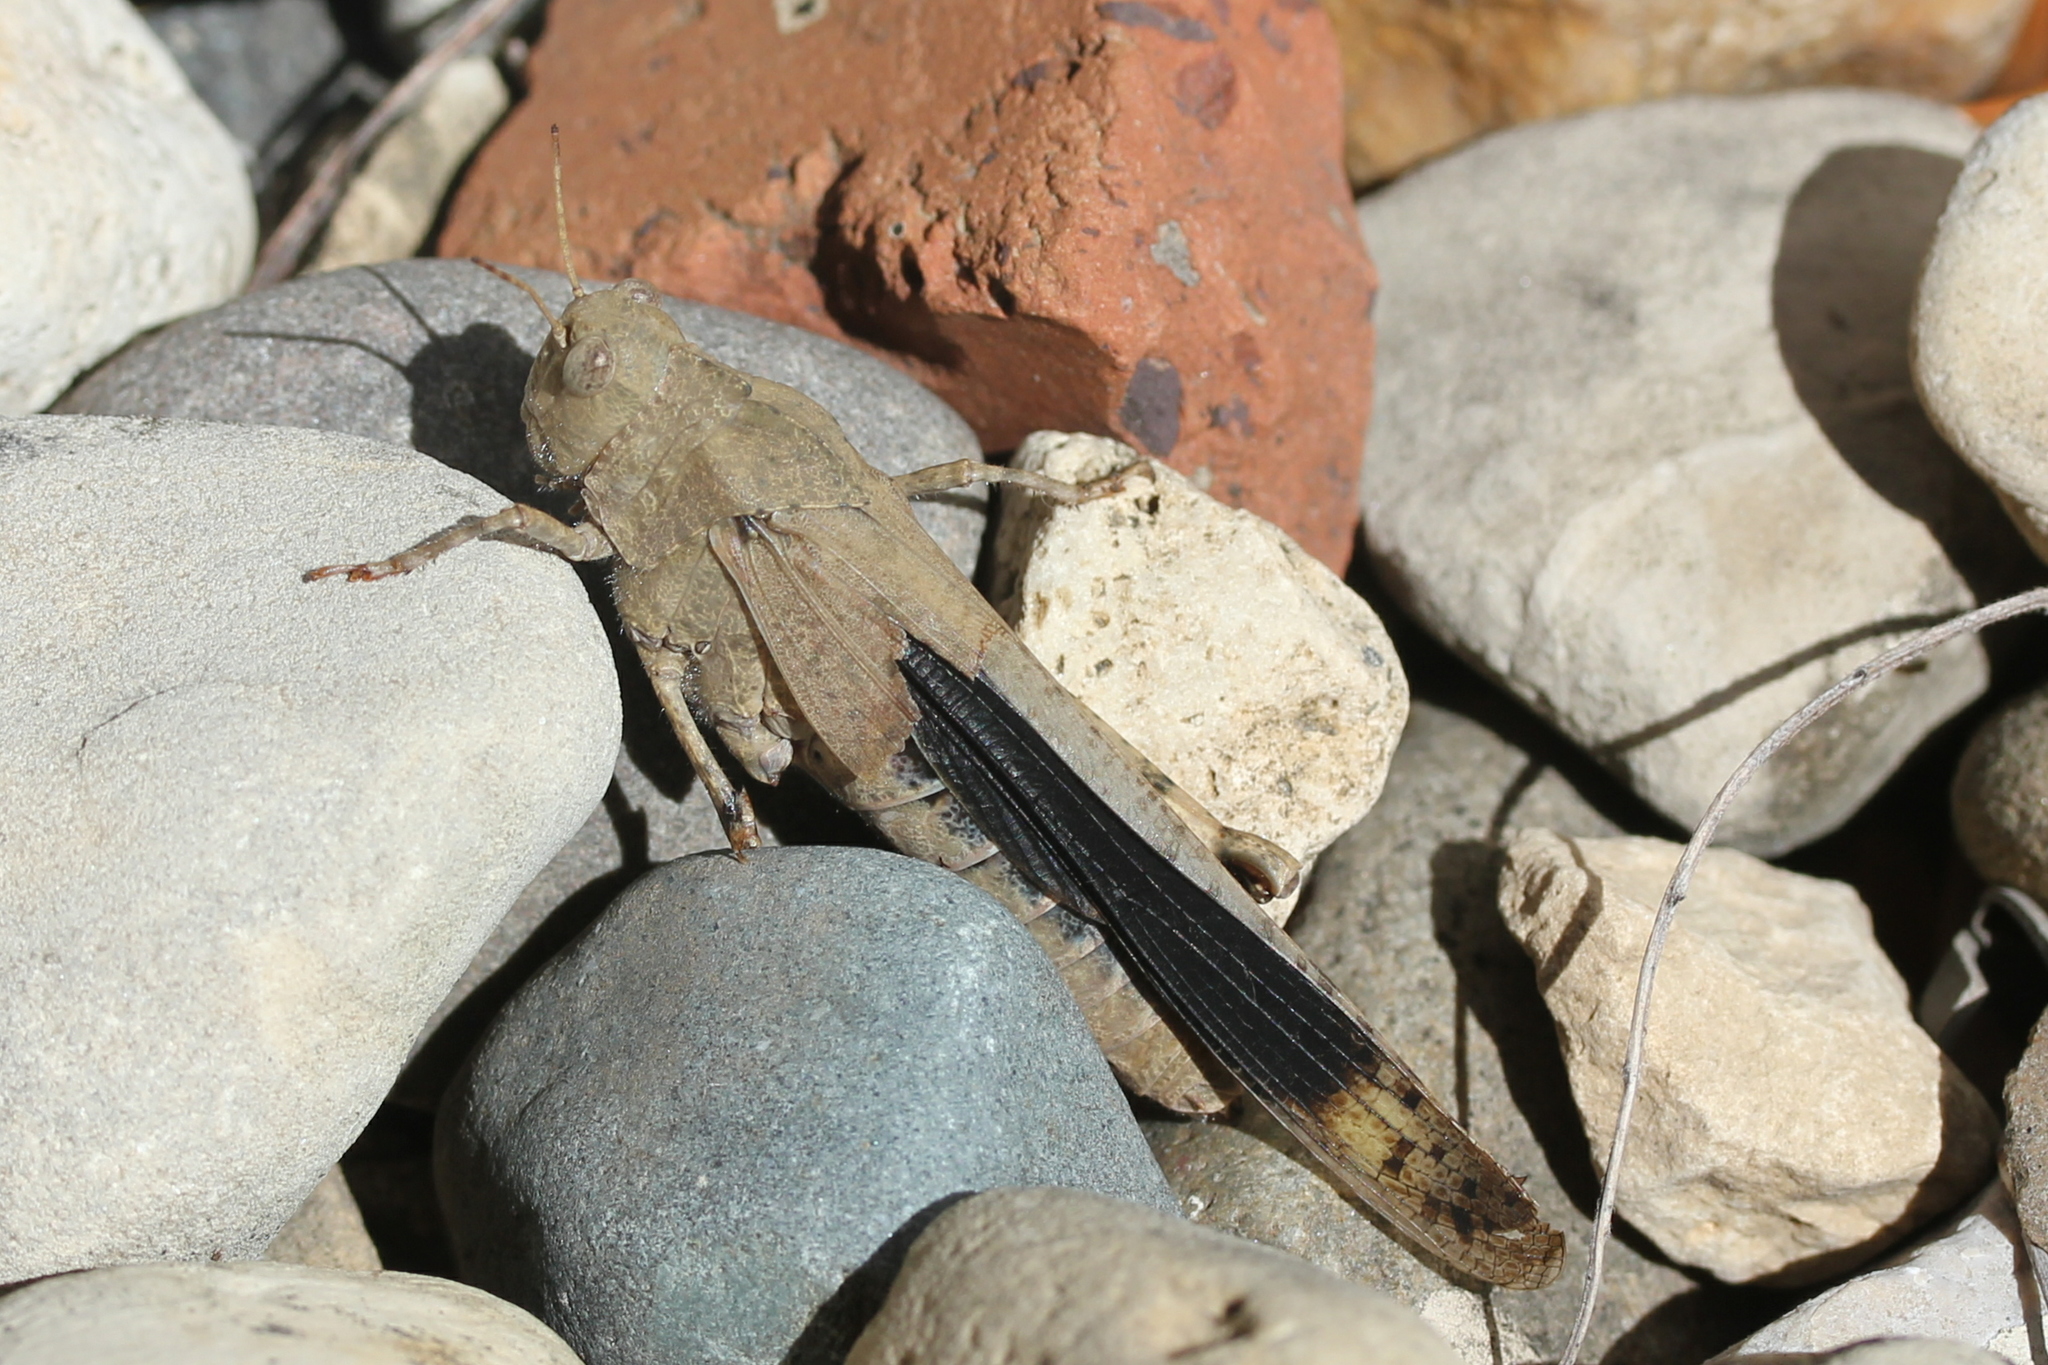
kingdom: Animalia
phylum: Arthropoda
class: Insecta
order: Orthoptera
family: Acrididae
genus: Dissosteira
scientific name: Dissosteira carolina
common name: Carolina grasshopper
